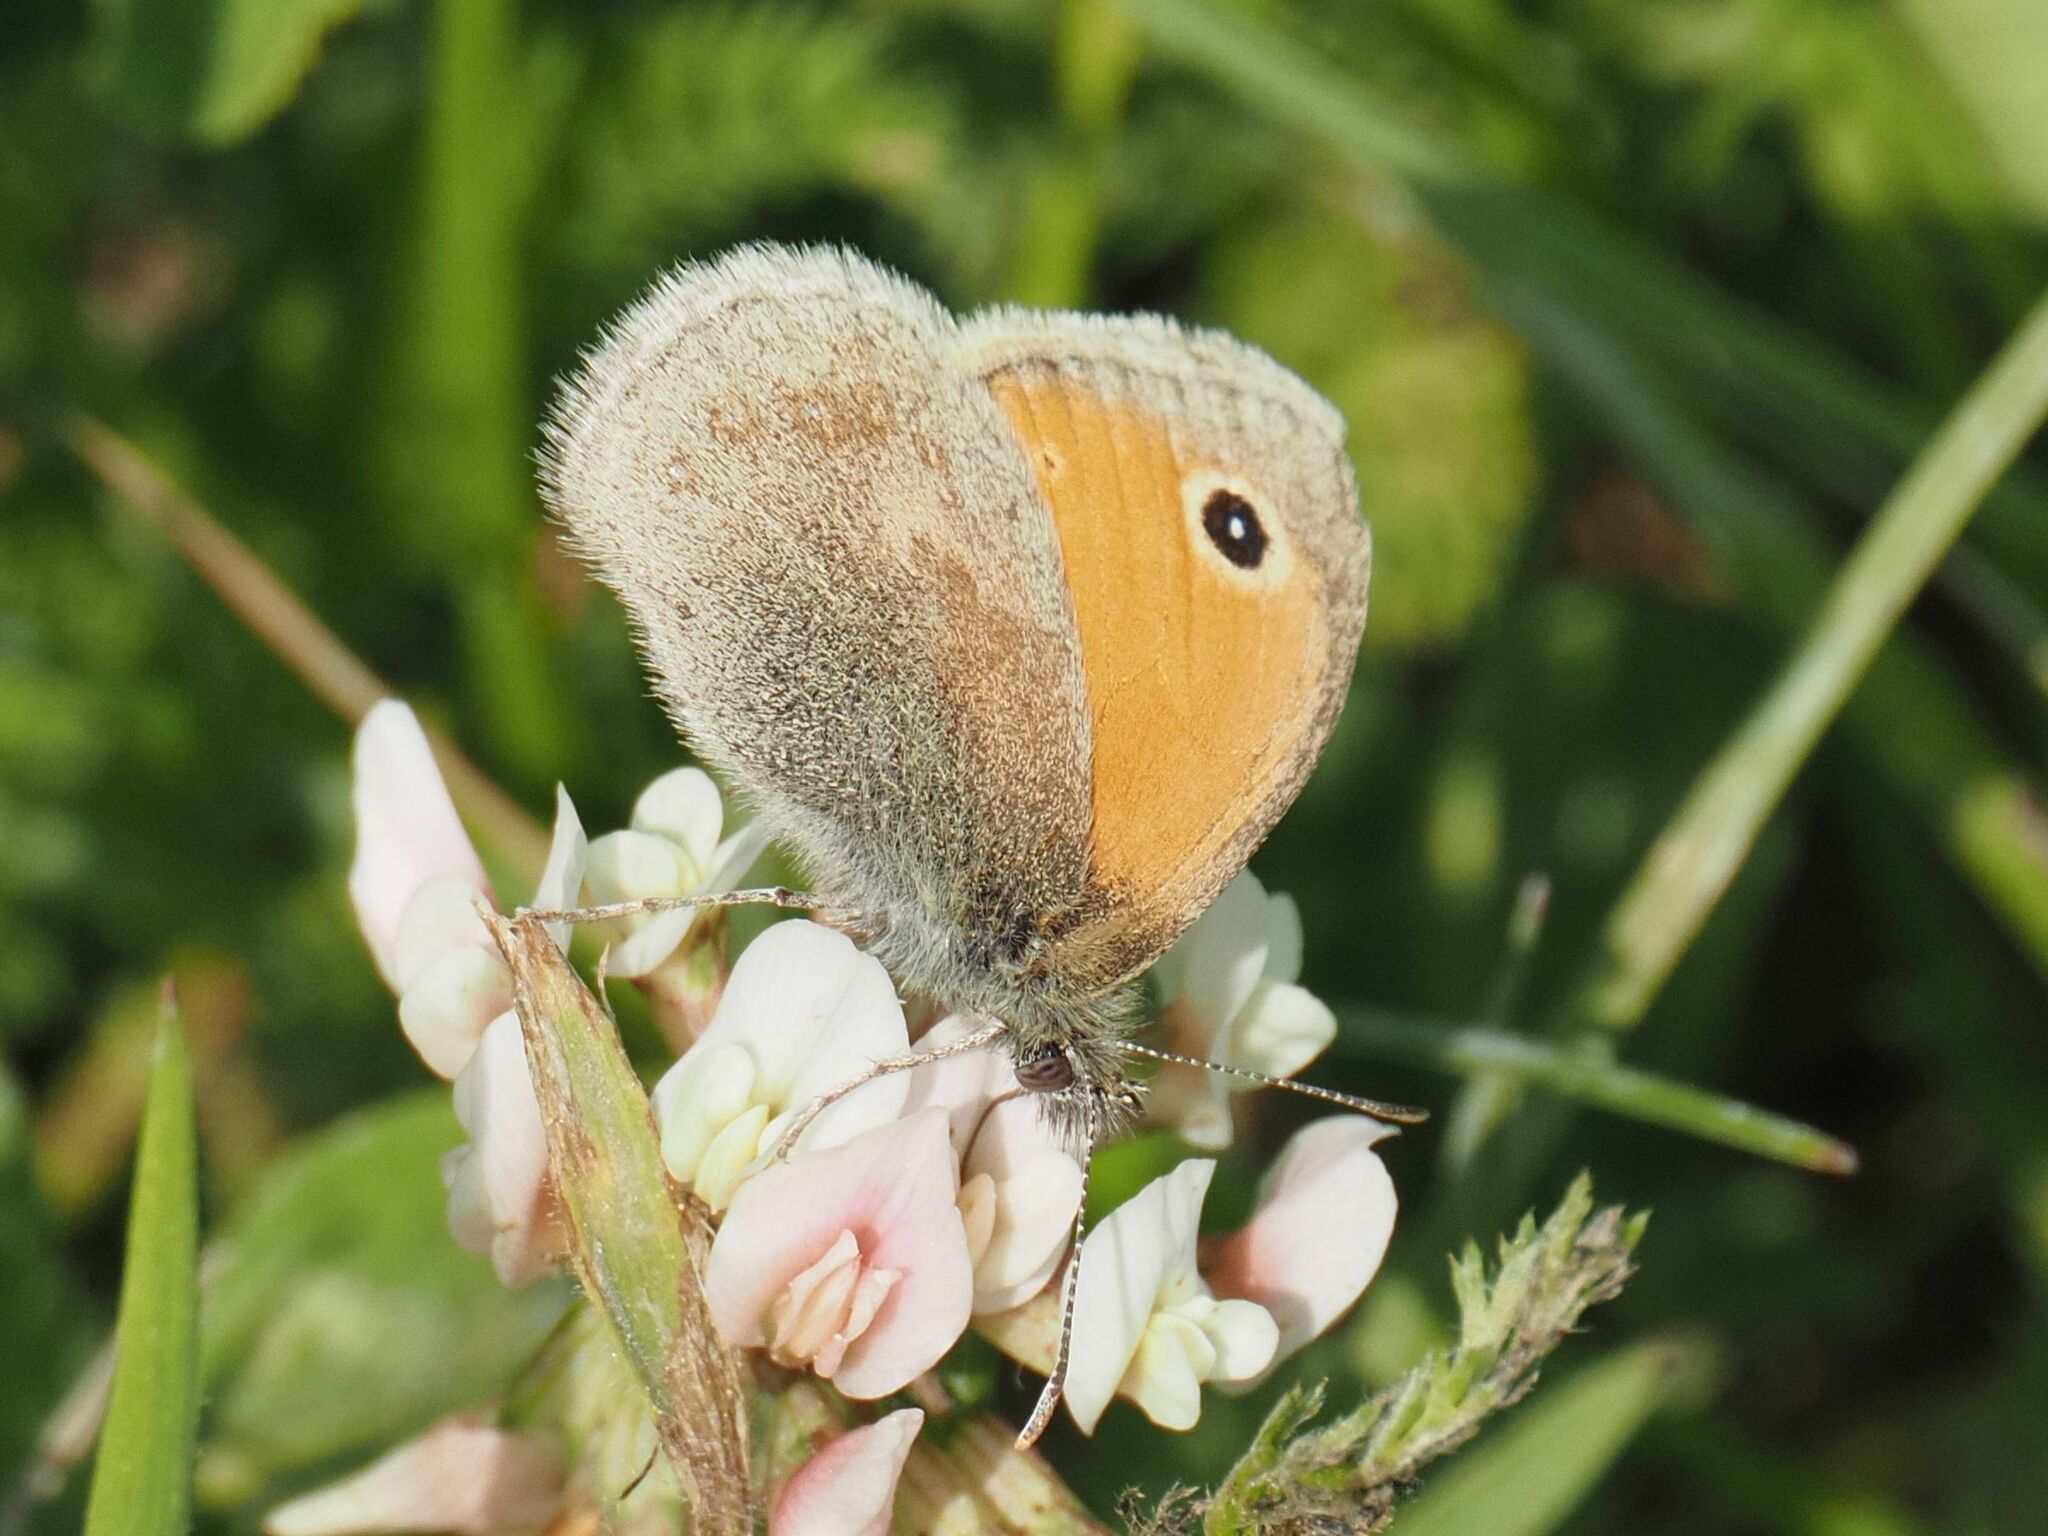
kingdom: Animalia
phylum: Arthropoda
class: Insecta
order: Lepidoptera
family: Nymphalidae
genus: Coenonympha
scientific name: Coenonympha pamphilus
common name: Small heath
